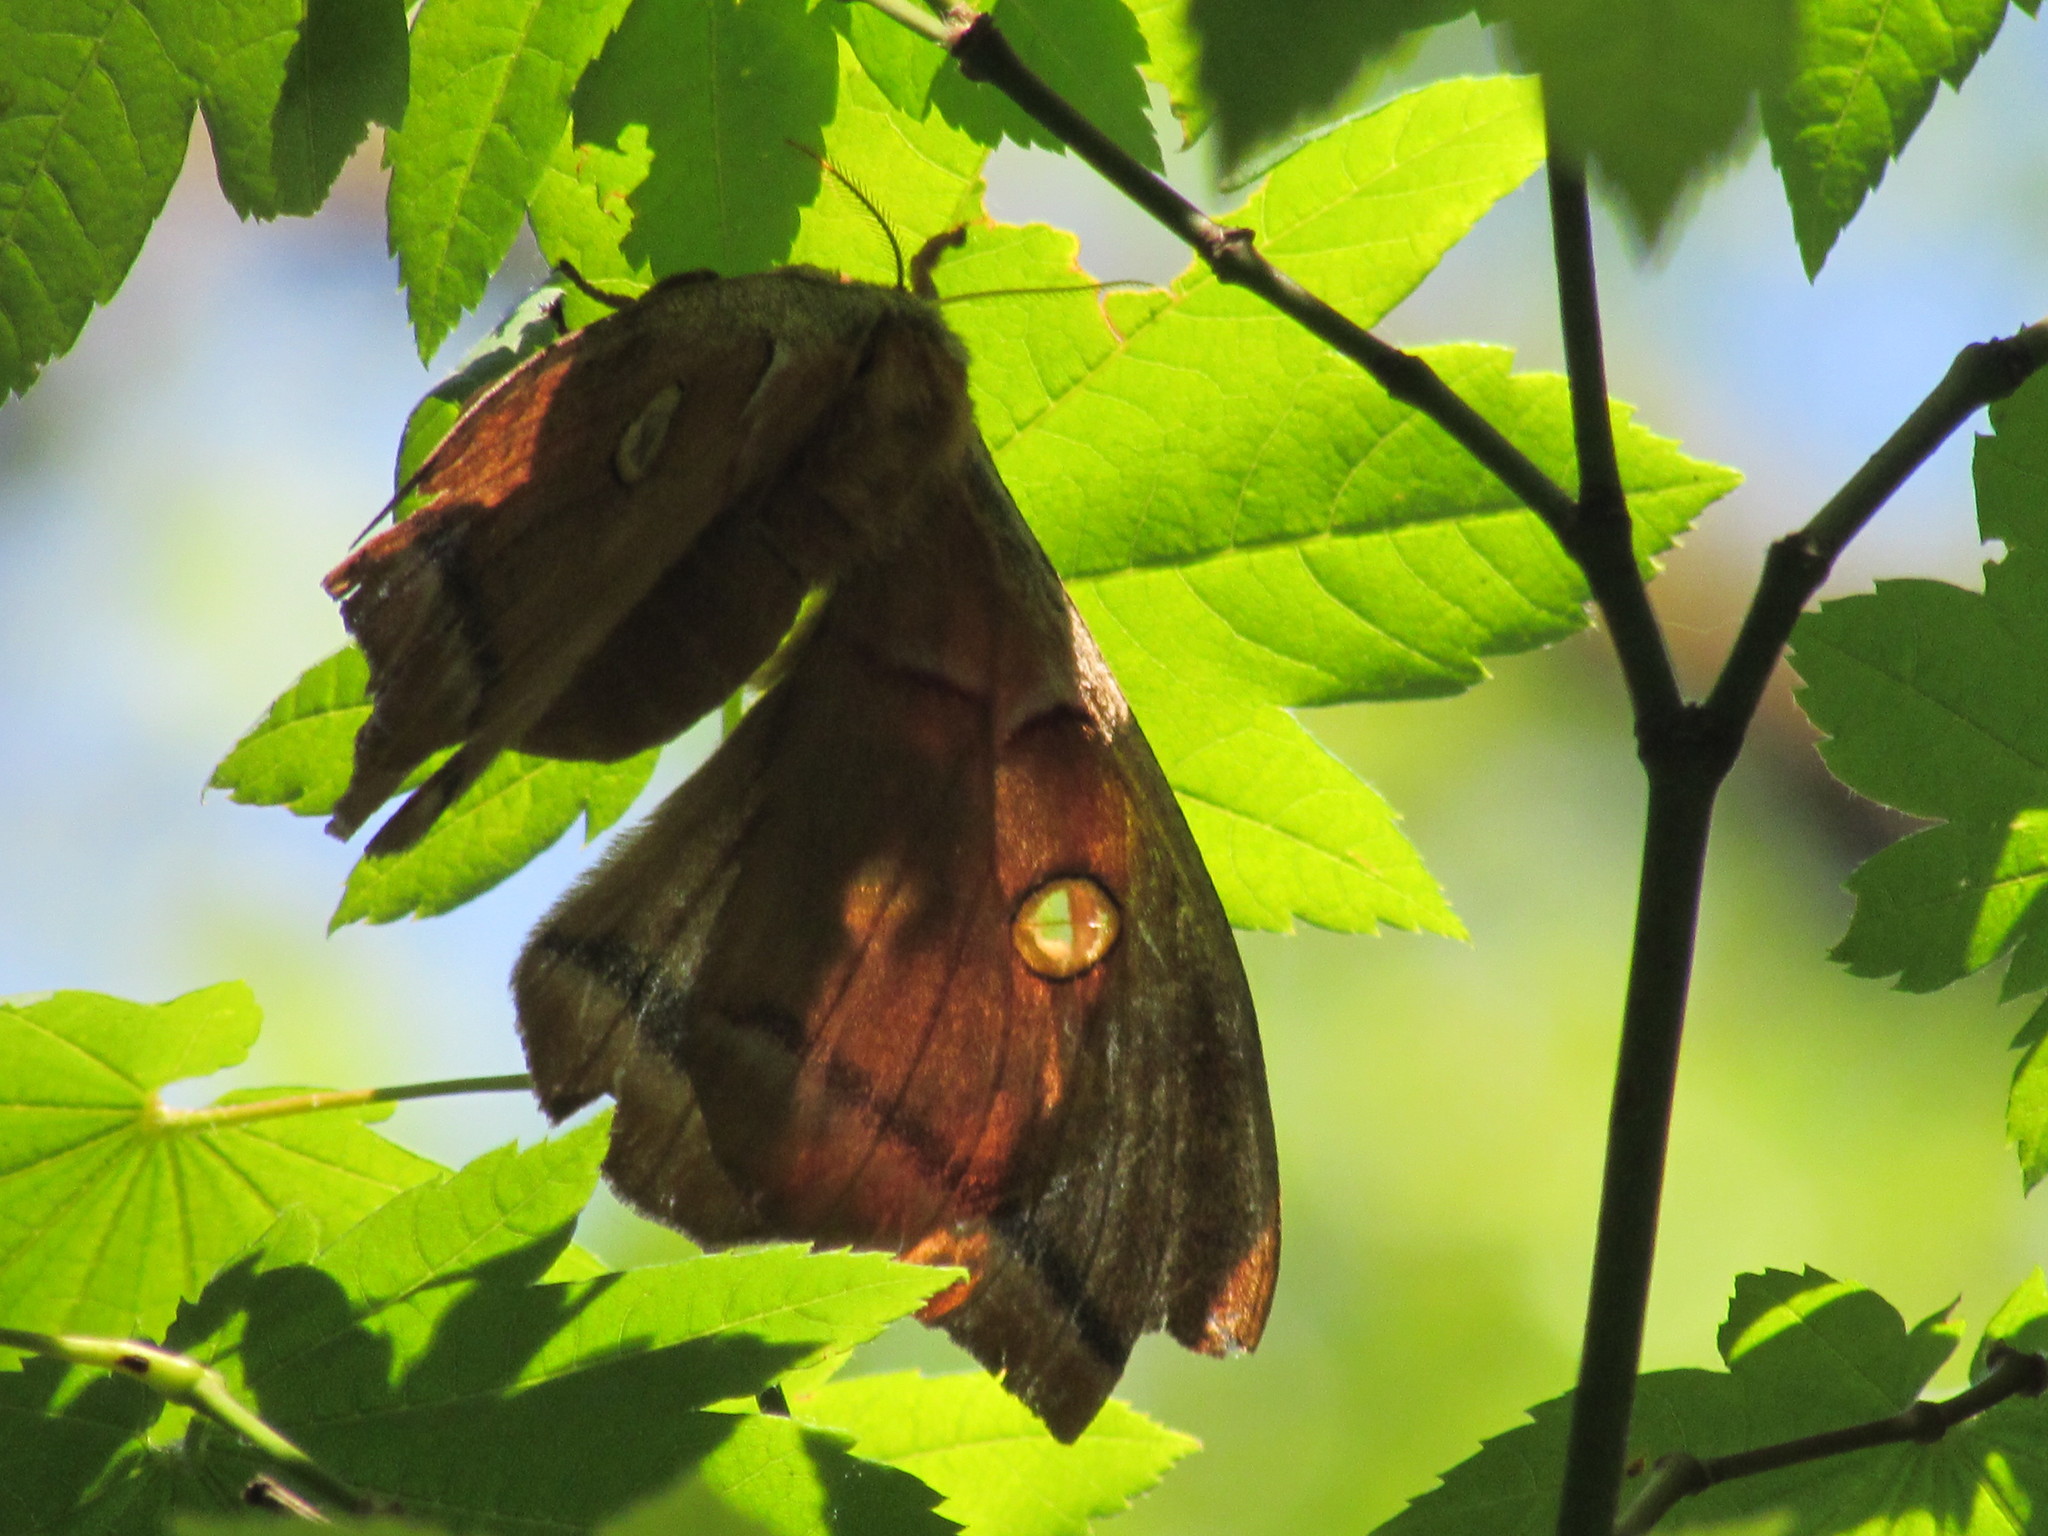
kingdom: Animalia
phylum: Arthropoda
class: Insecta
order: Lepidoptera
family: Saturniidae
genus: Antheraea
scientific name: Antheraea polyphemus
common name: Polyphemus moth
